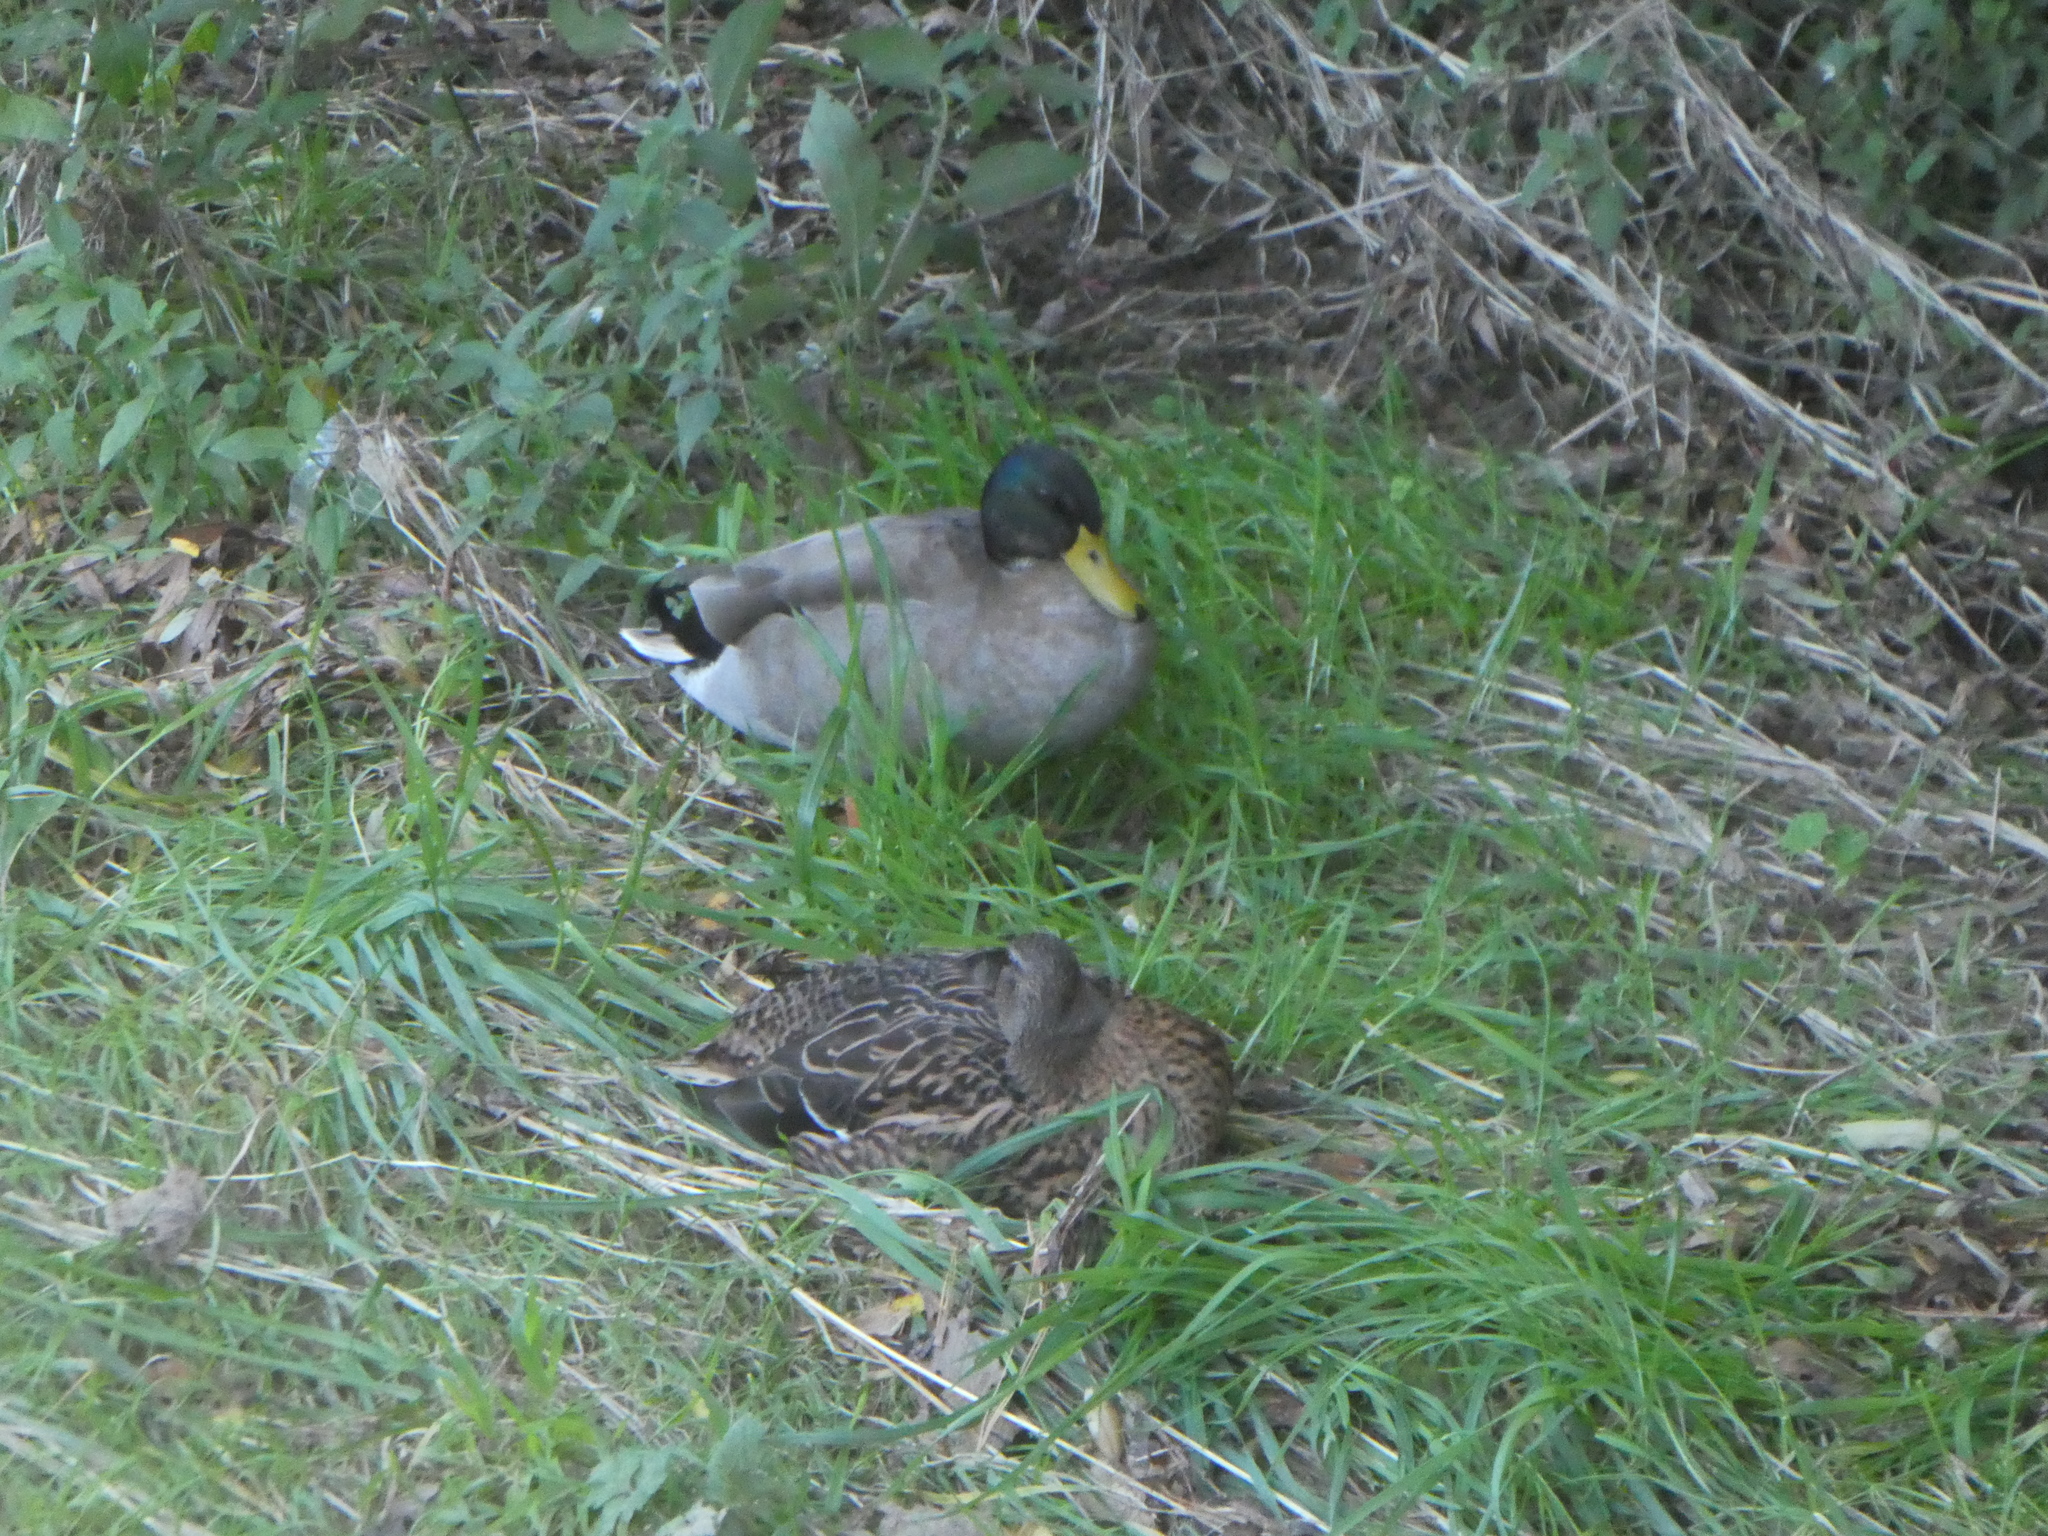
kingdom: Animalia
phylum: Chordata
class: Aves
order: Anseriformes
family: Anatidae
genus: Anas
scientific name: Anas platyrhynchos
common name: Mallard
